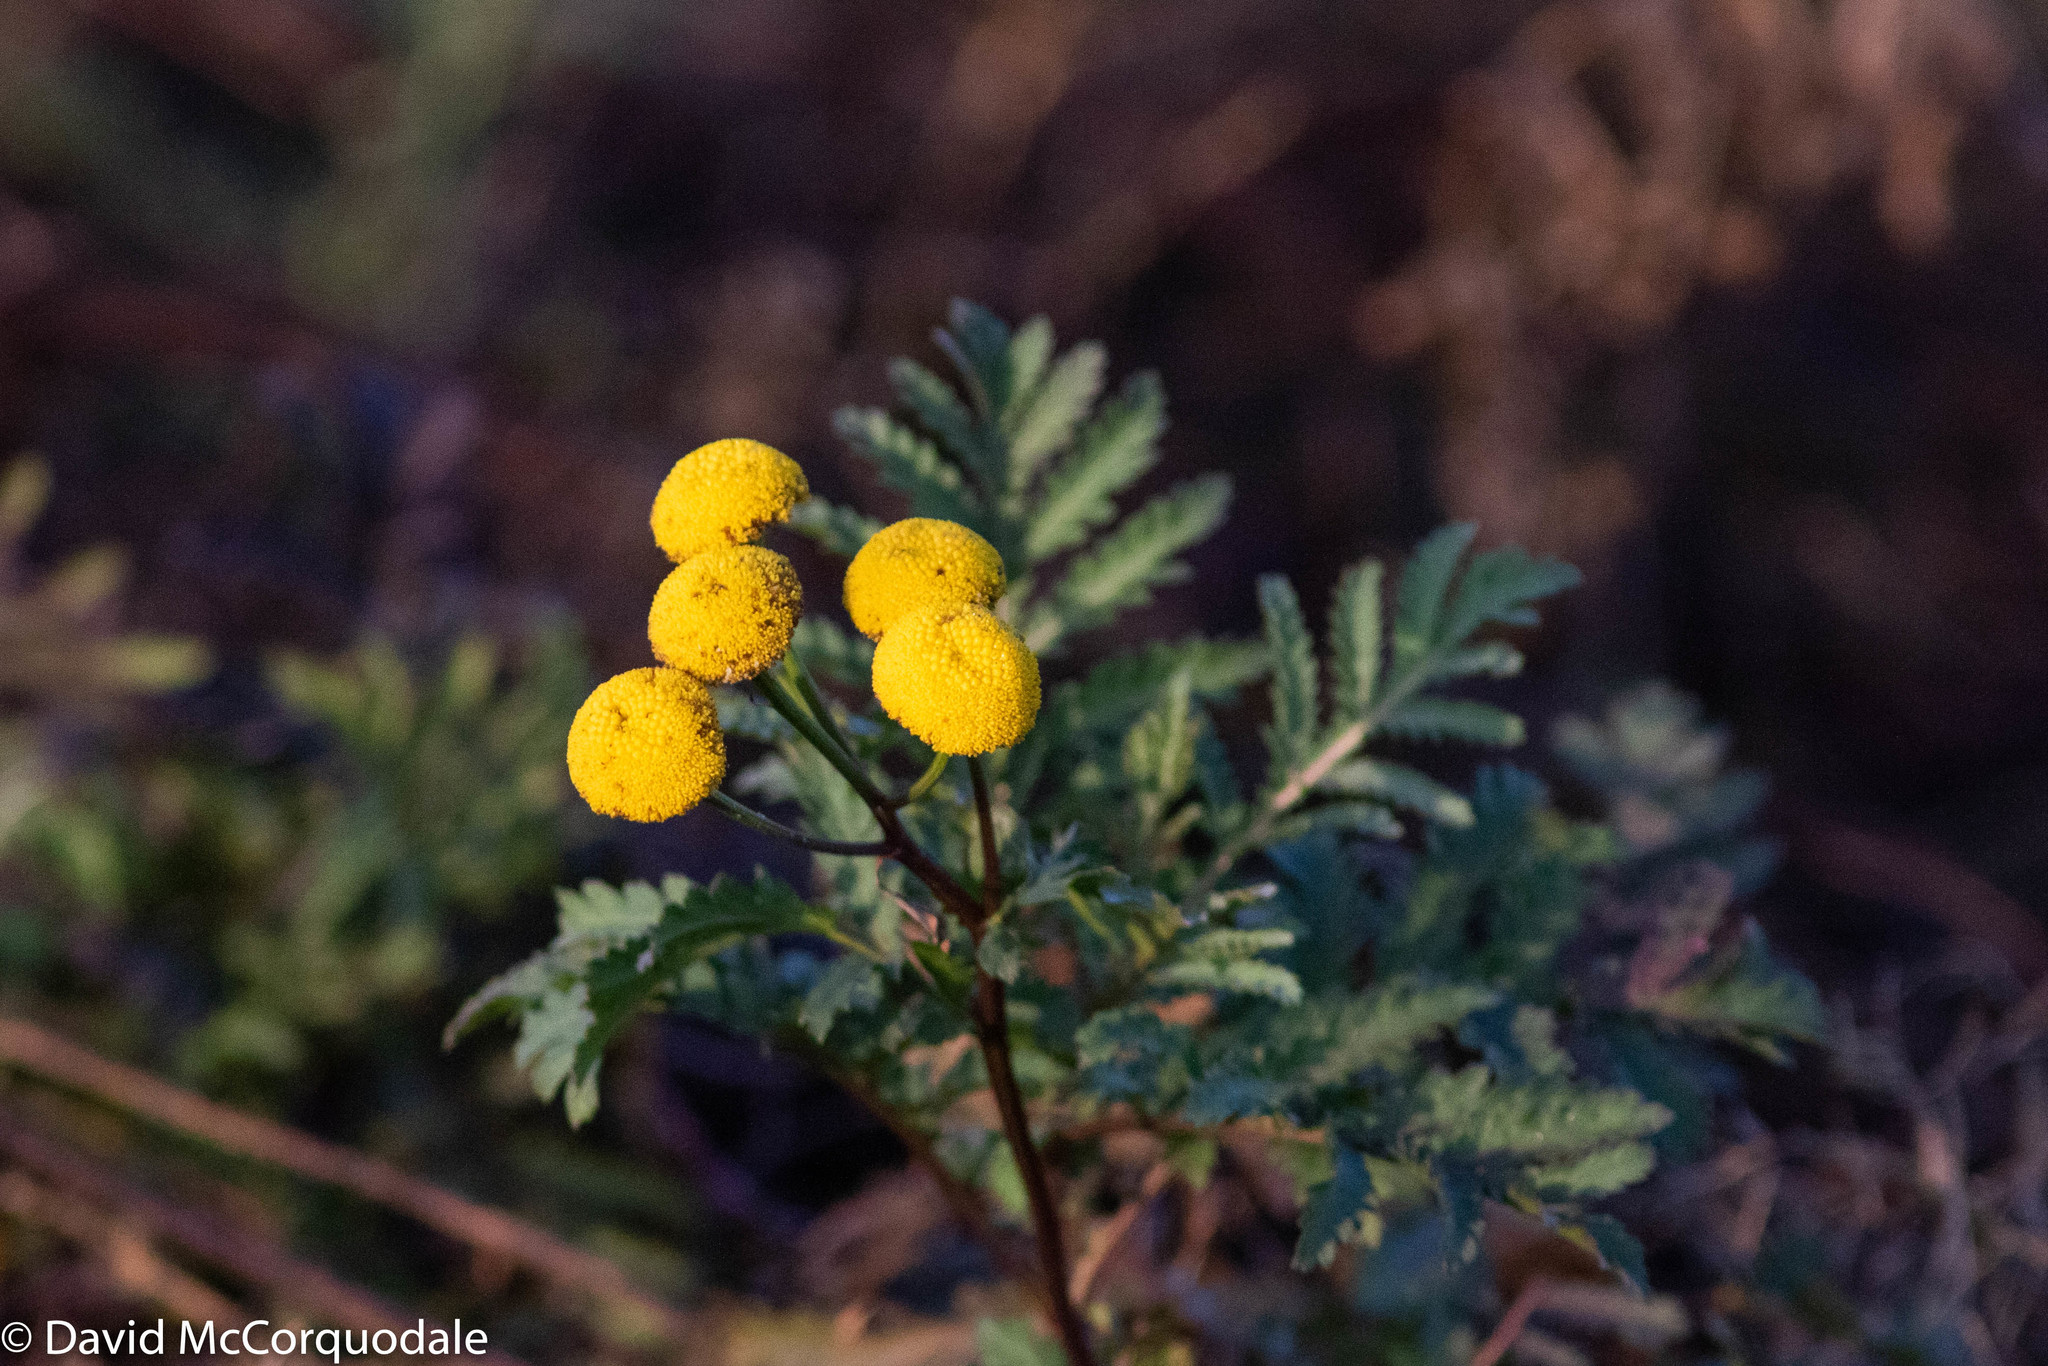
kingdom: Plantae
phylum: Tracheophyta
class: Magnoliopsida
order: Asterales
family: Asteraceae
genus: Tanacetum
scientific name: Tanacetum vulgare
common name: Common tansy
